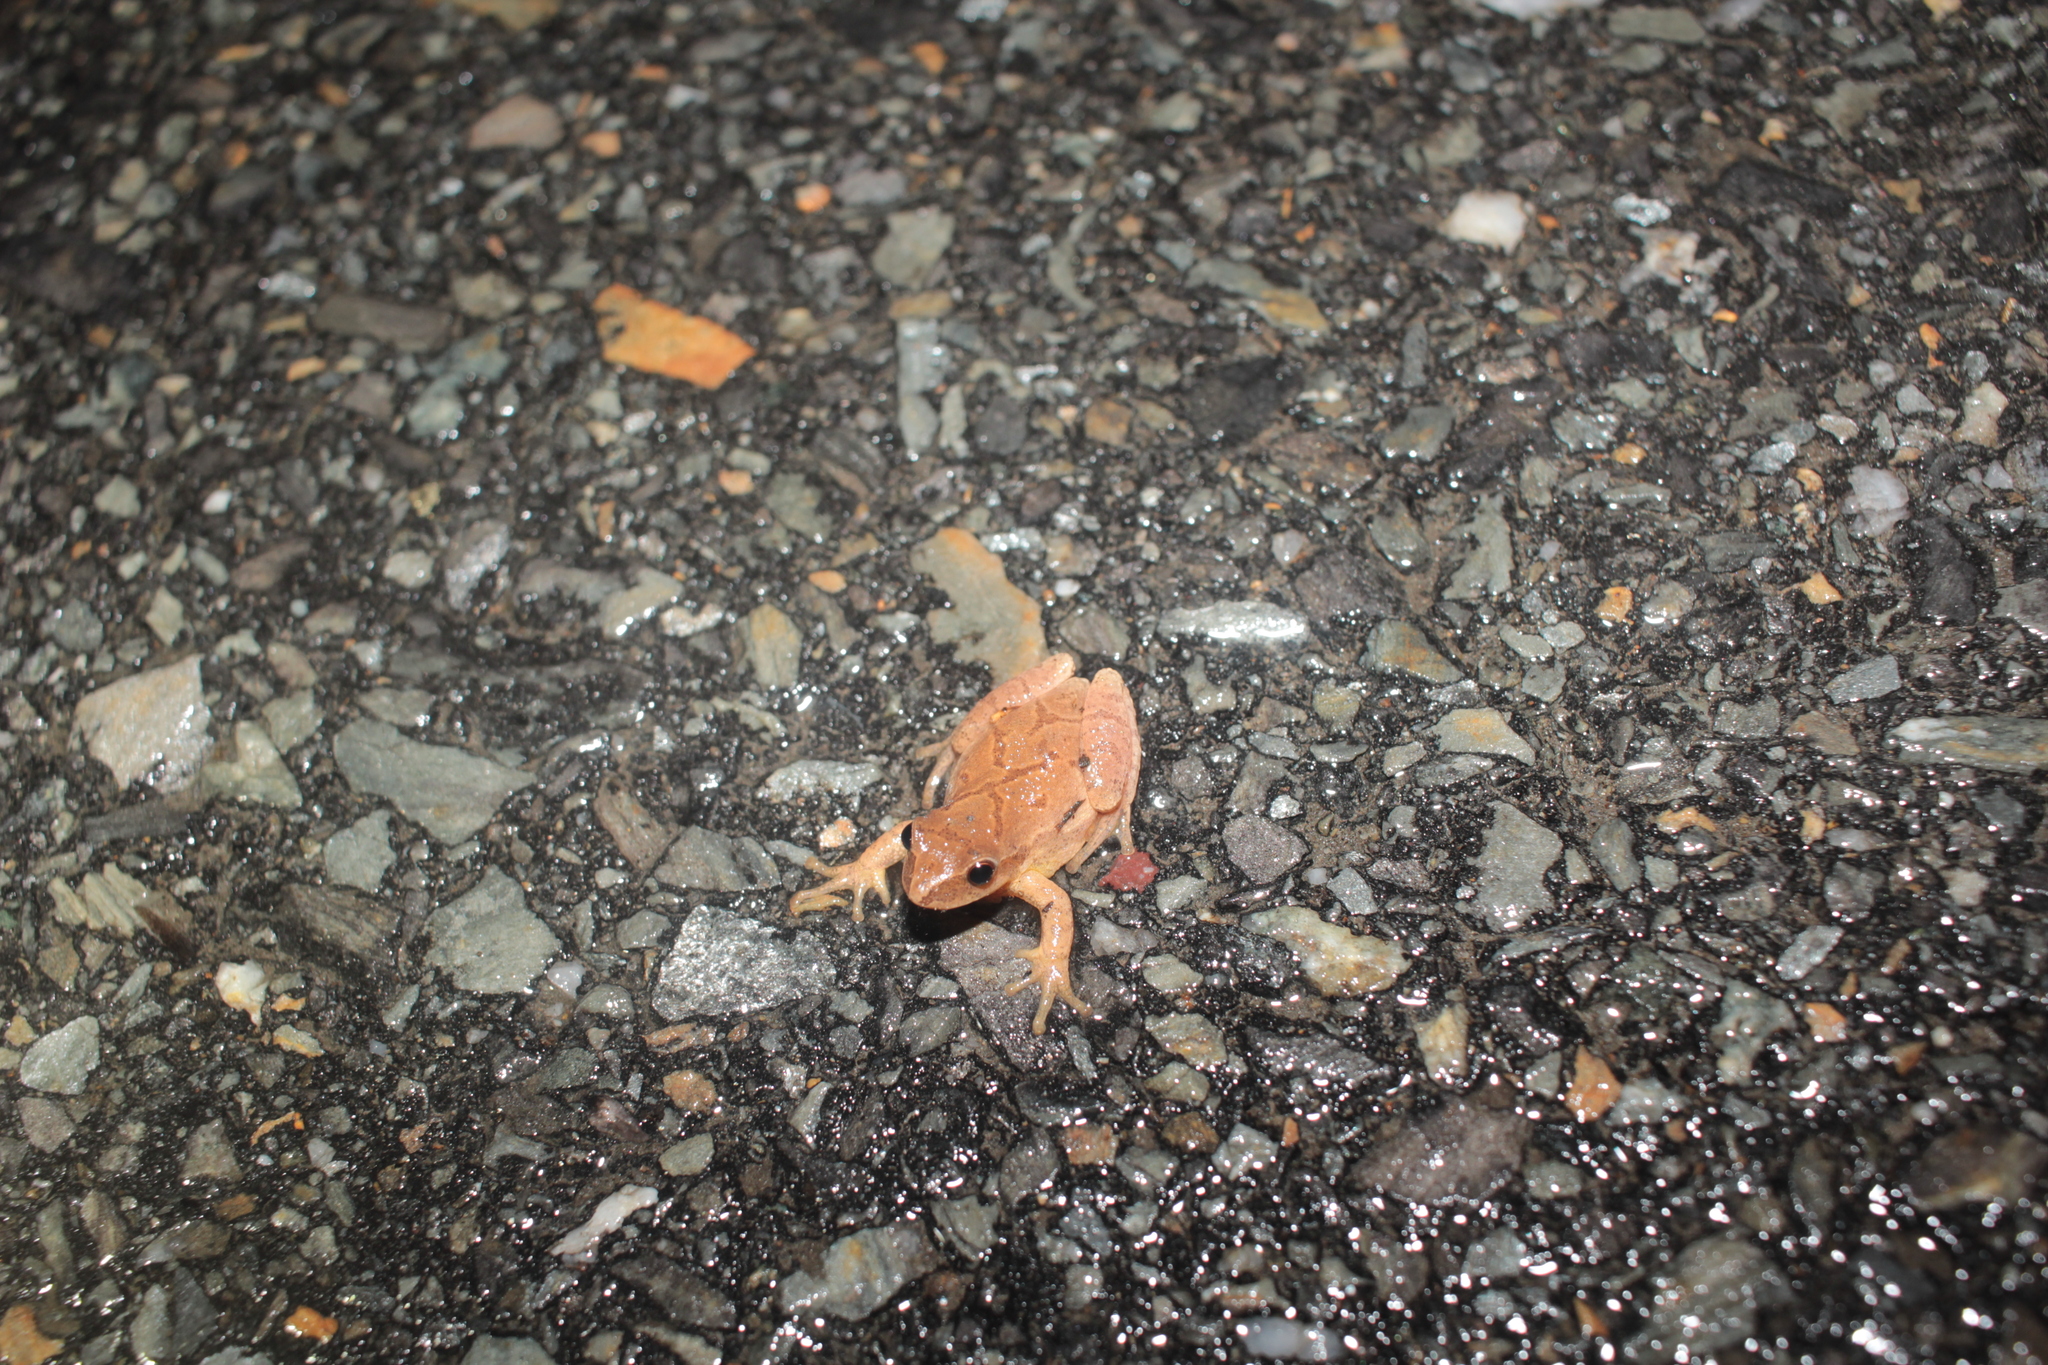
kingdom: Animalia
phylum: Chordata
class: Amphibia
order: Anura
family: Hylidae
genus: Pseudacris
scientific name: Pseudacris crucifer
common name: Spring peeper
